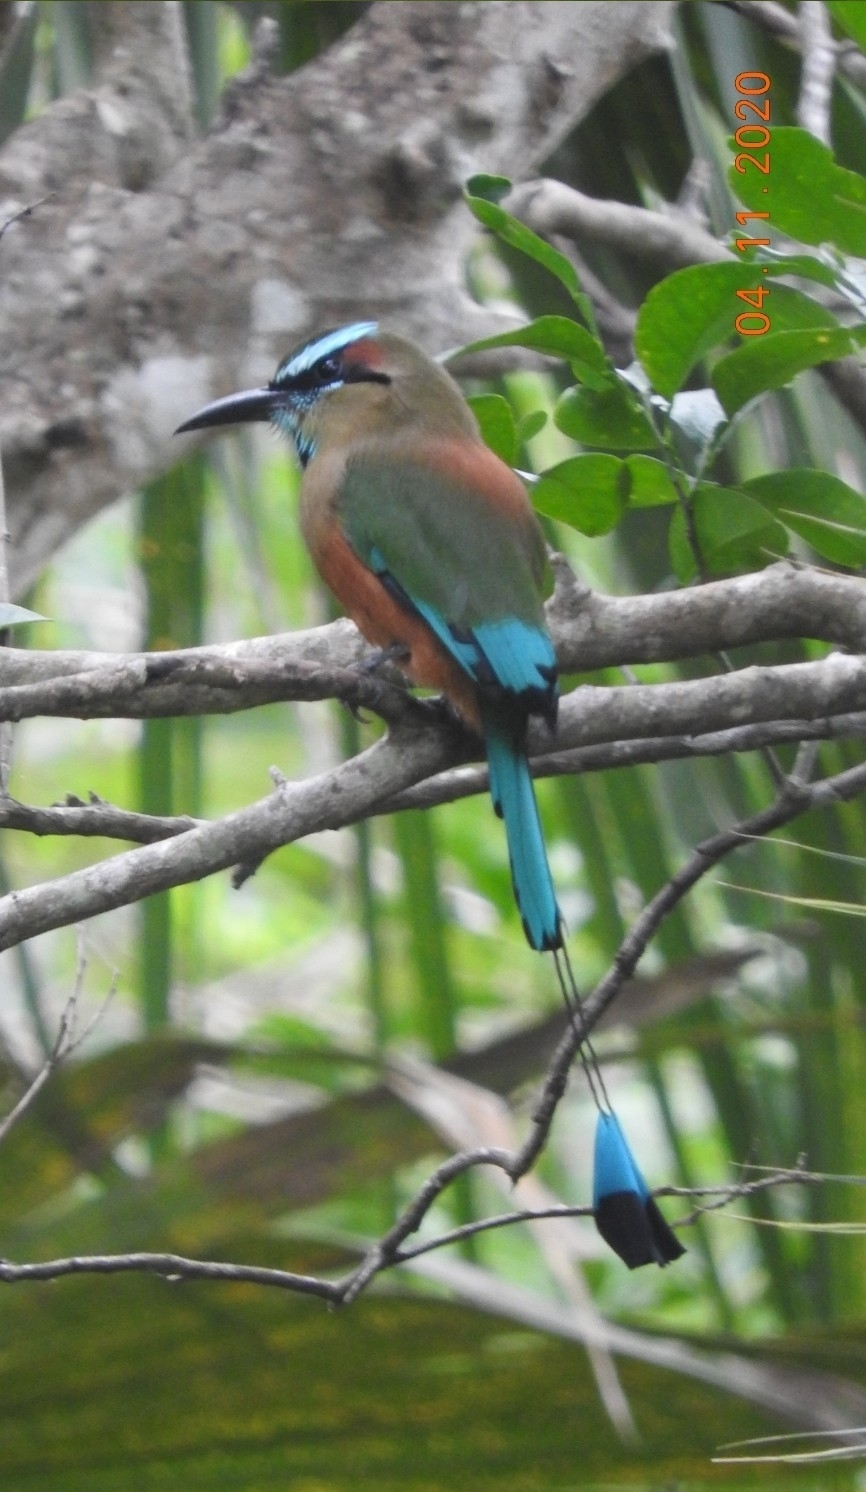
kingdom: Animalia
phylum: Chordata
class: Aves
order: Coraciiformes
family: Momotidae
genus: Eumomota
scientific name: Eumomota superciliosa
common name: Turquoise-browed motmot
